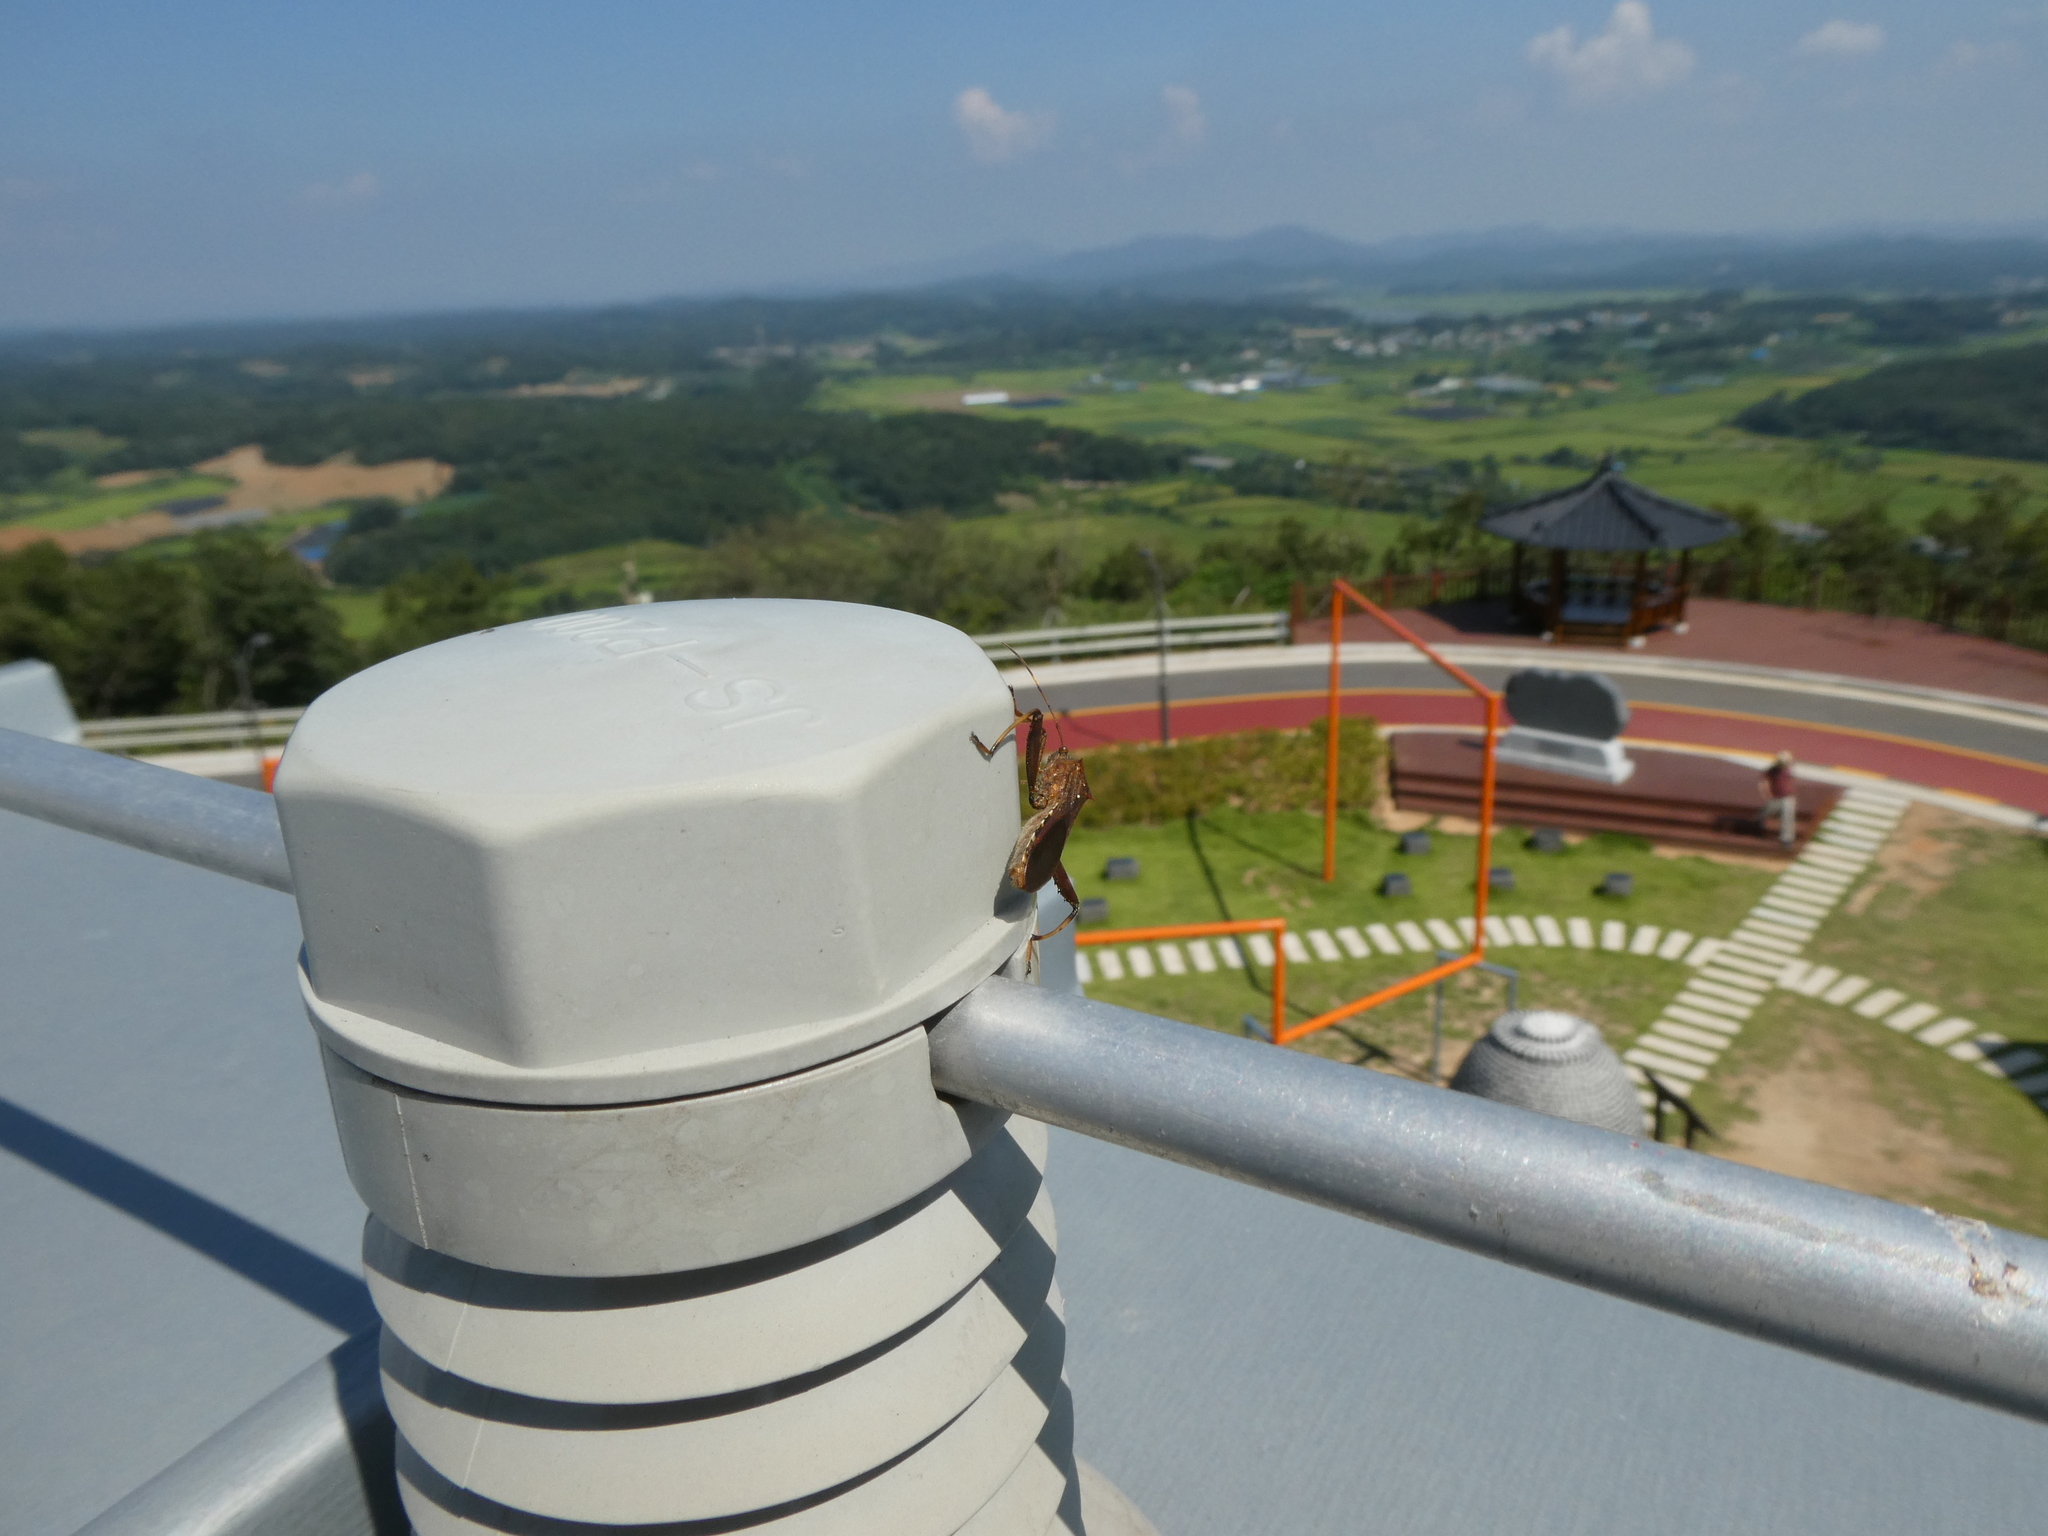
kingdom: Animalia
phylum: Arthropoda
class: Insecta
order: Hemiptera
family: Alydidae
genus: Riptortus
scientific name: Riptortus pedestris
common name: Bean bug
